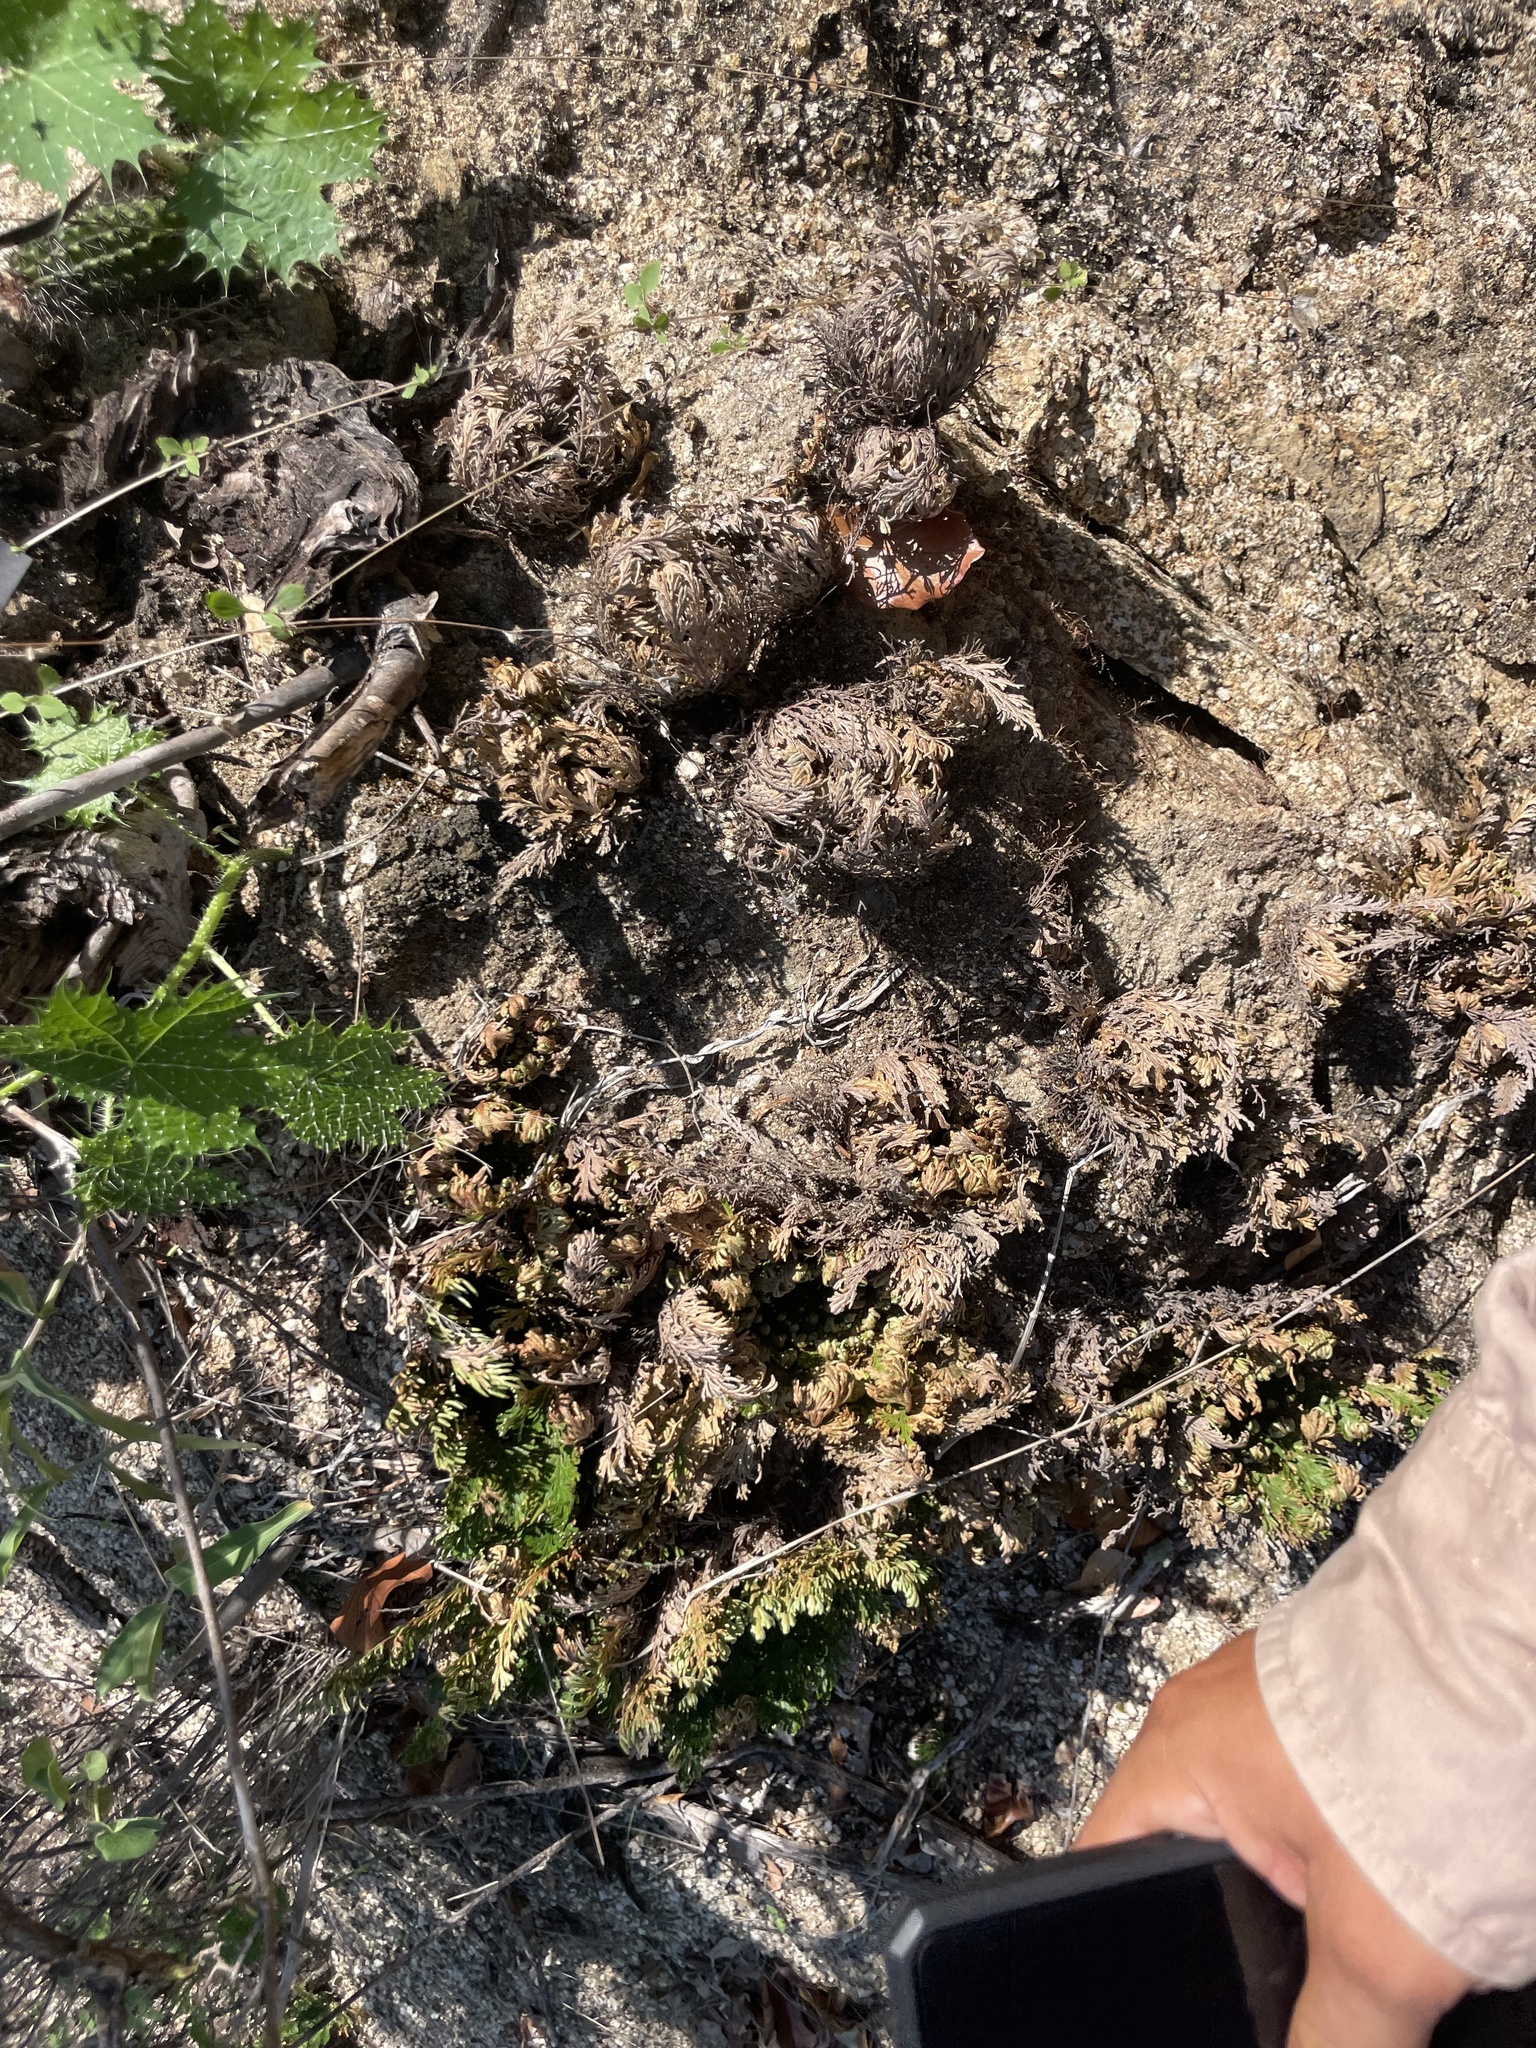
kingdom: Plantae
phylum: Tracheophyta
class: Lycopodiopsida
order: Selaginellales
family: Selaginellaceae
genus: Selaginella
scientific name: Selaginella lepidophylla
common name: Rose-of-jericho
